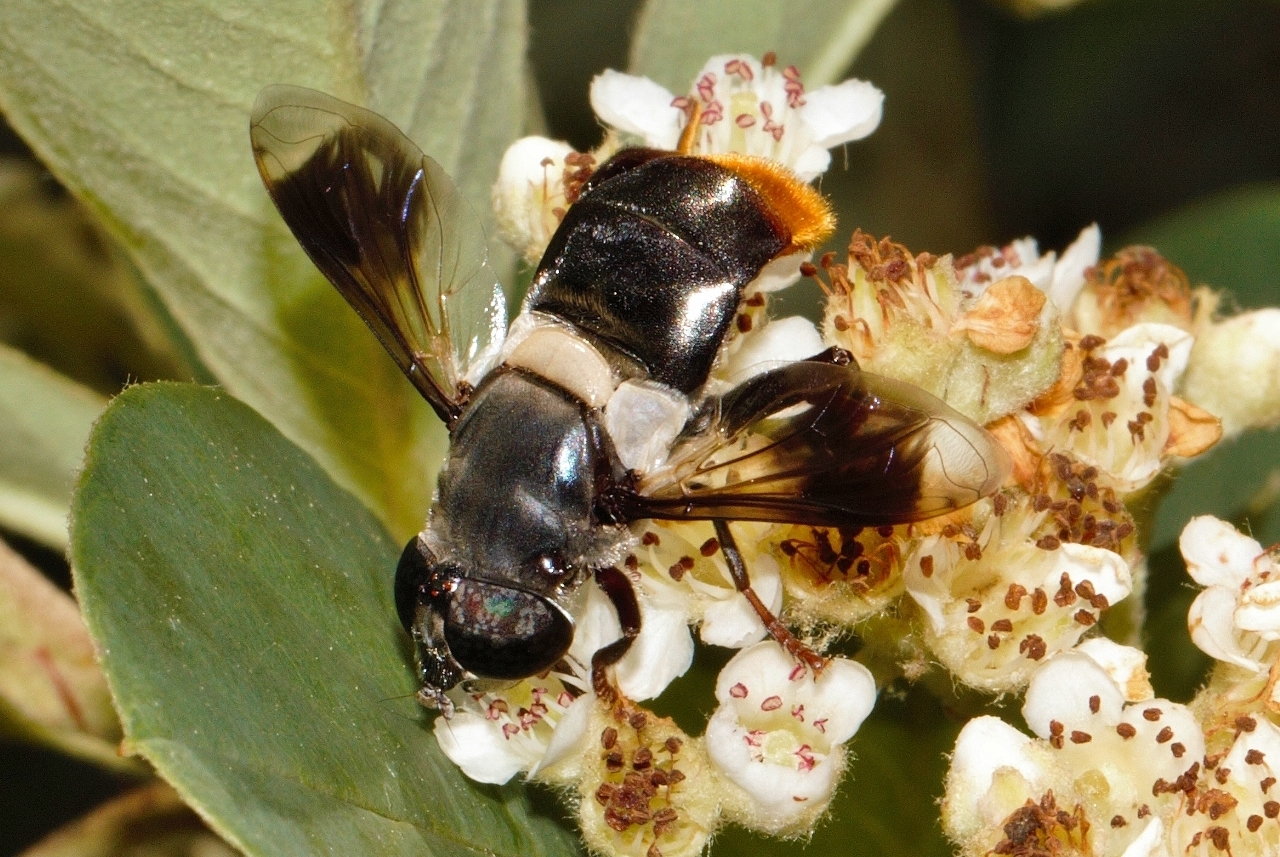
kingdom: Animalia
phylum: Arthropoda
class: Insecta
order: Diptera
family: Syrphidae
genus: Senaspis
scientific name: Senaspis haemorrhoa
